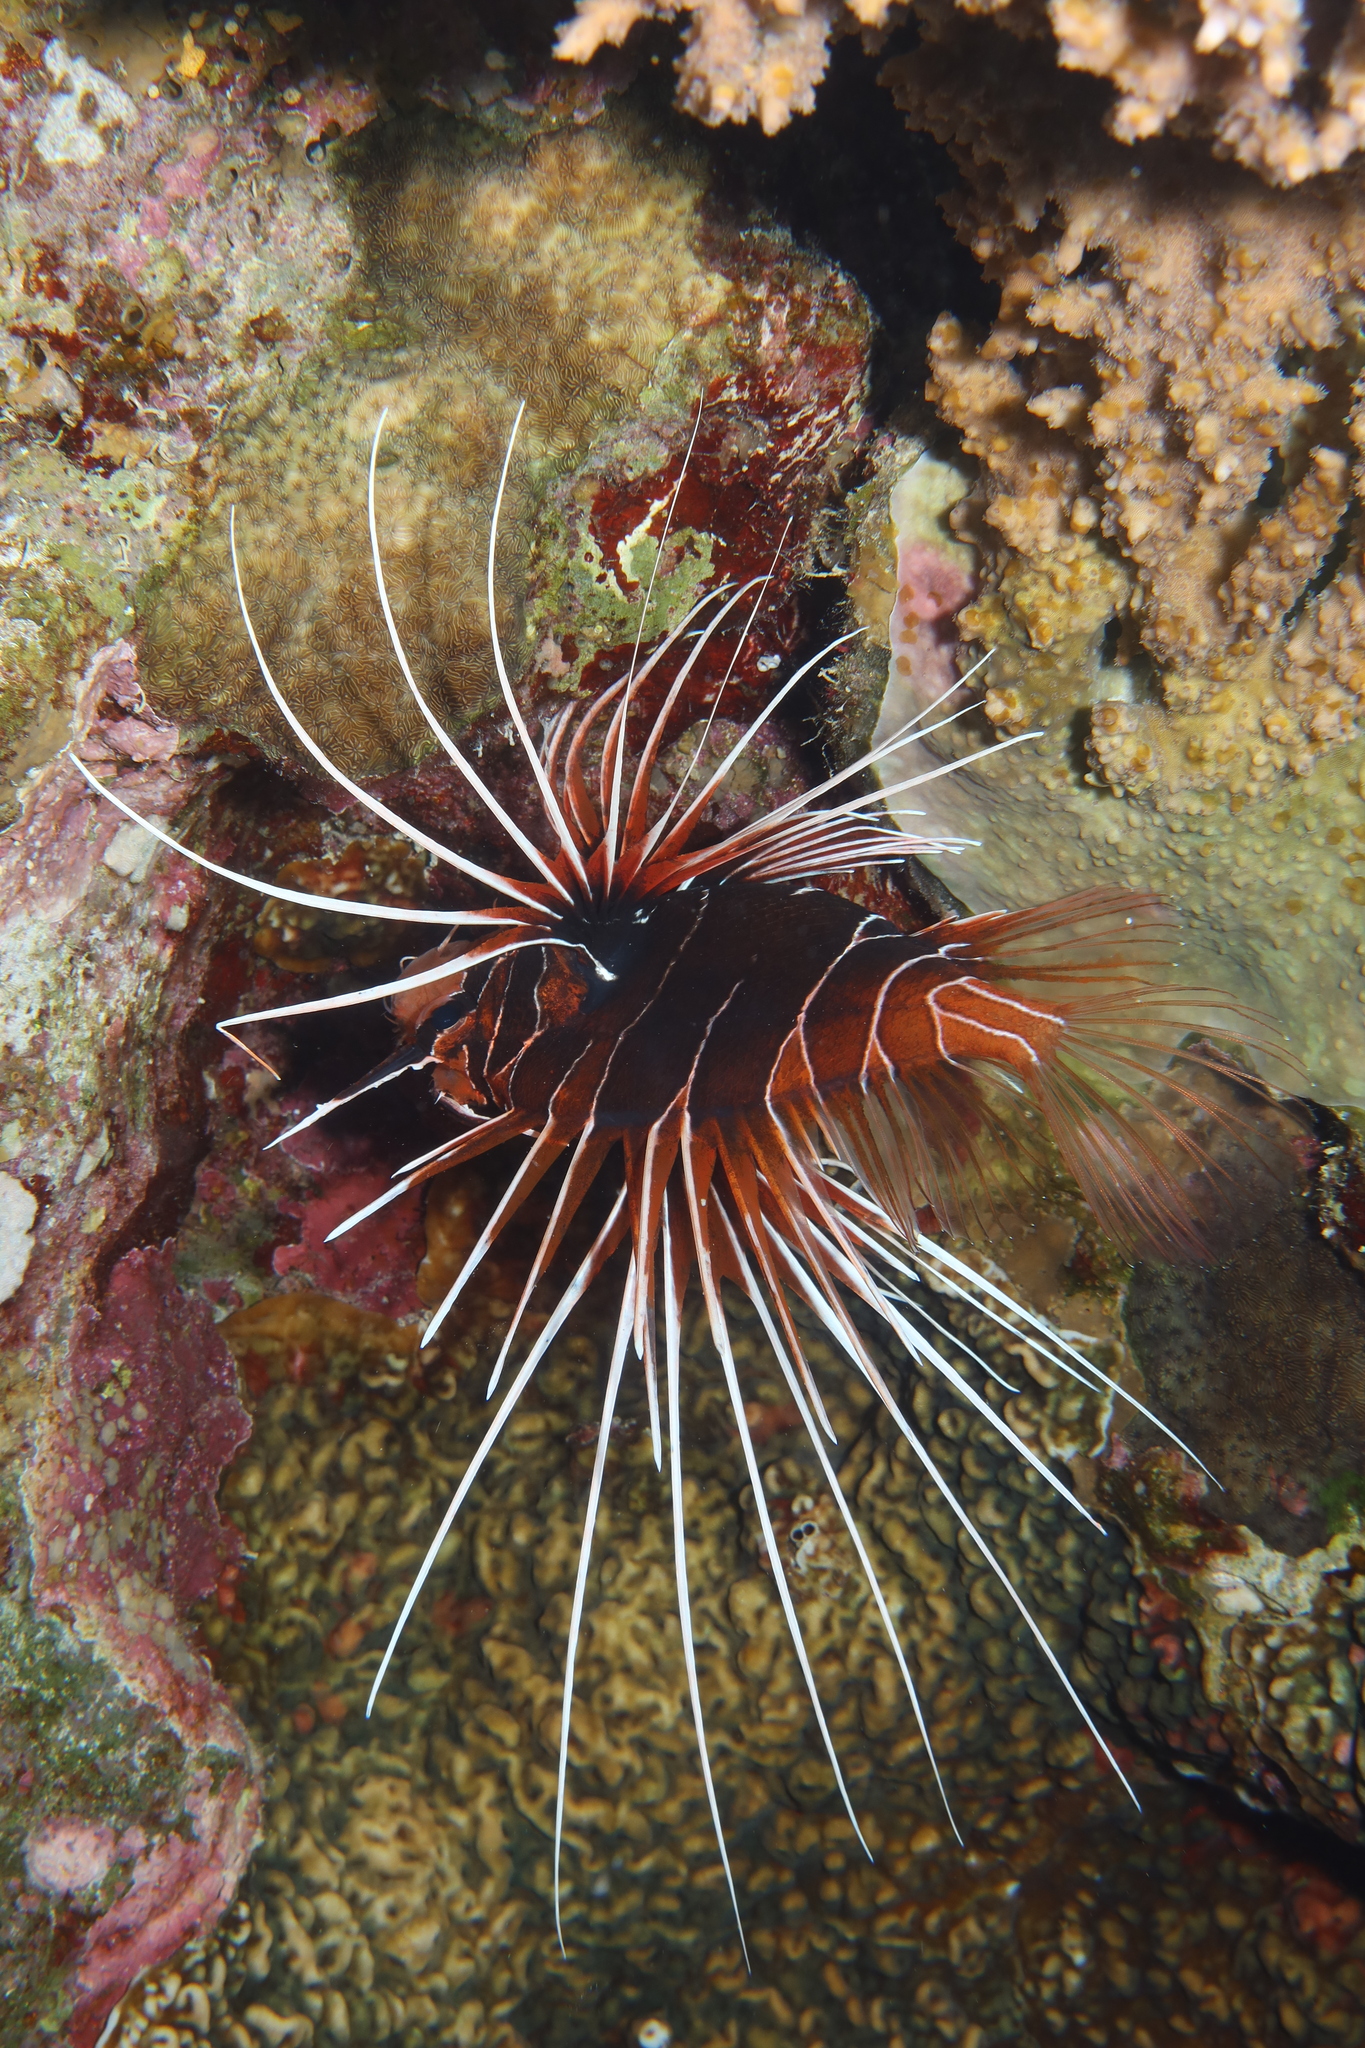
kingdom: Animalia
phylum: Chordata
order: Scorpaeniformes
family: Scorpaenidae
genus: Pterois
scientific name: Pterois cincta
